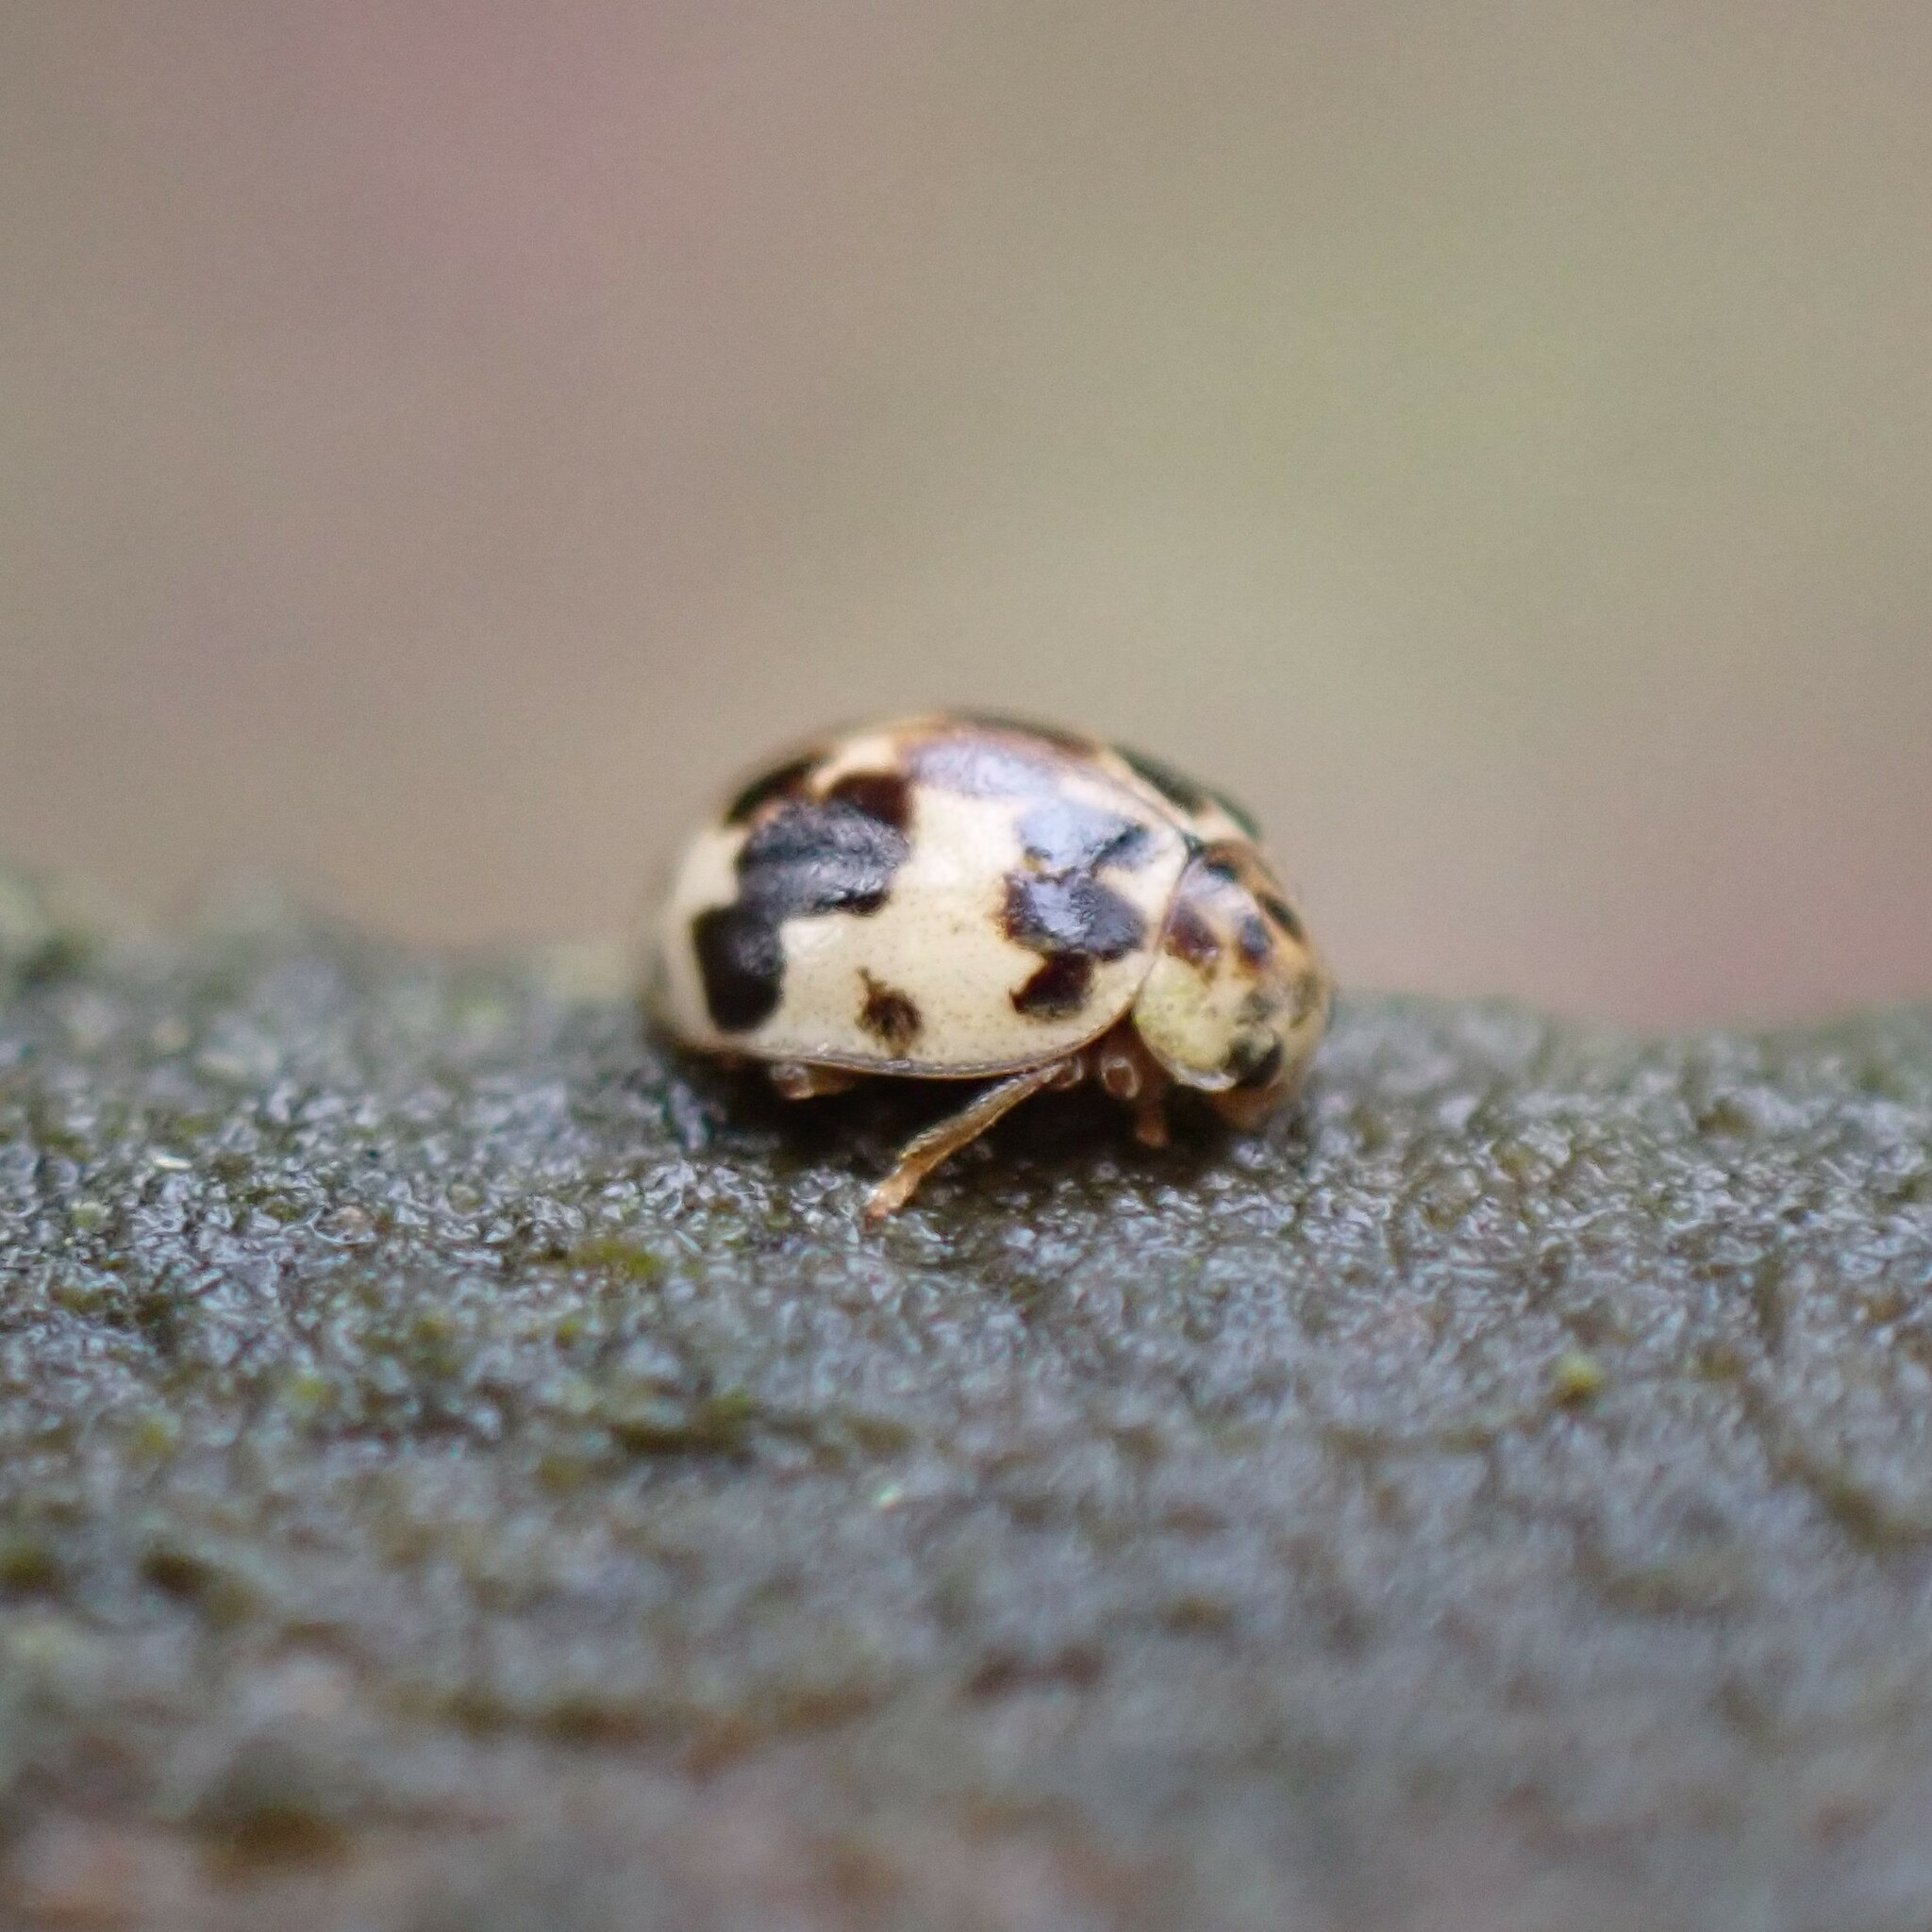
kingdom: Animalia
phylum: Arthropoda
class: Insecta
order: Coleoptera
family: Coccinellidae
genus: Psyllobora
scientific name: Psyllobora borealis
